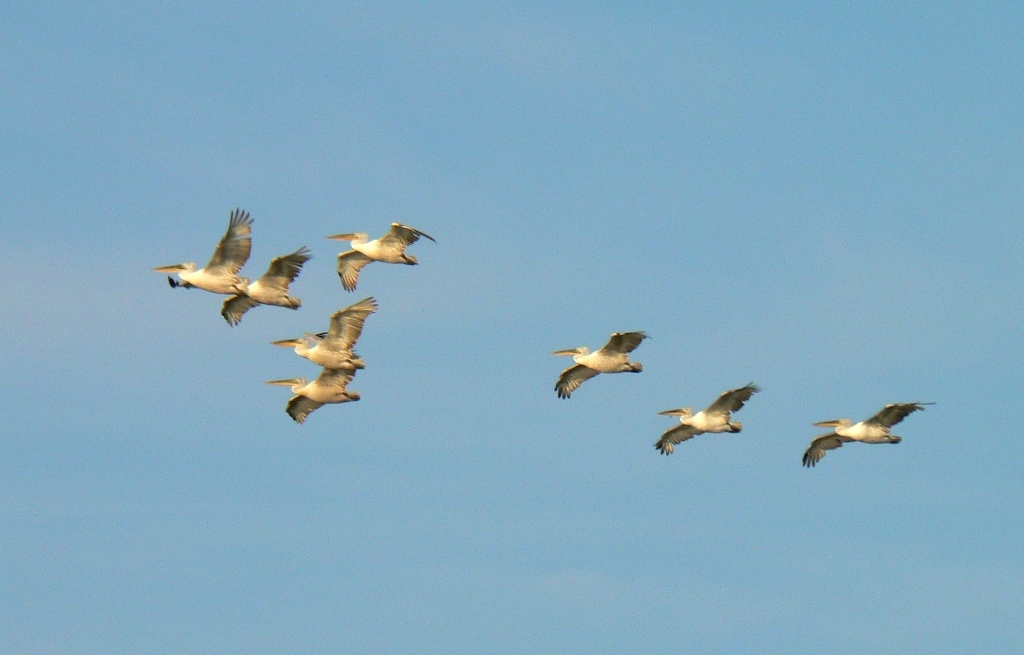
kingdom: Animalia
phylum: Chordata
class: Aves
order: Pelecaniformes
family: Pelecanidae
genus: Pelecanus
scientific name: Pelecanus crispus
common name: Dalmatian pelican
